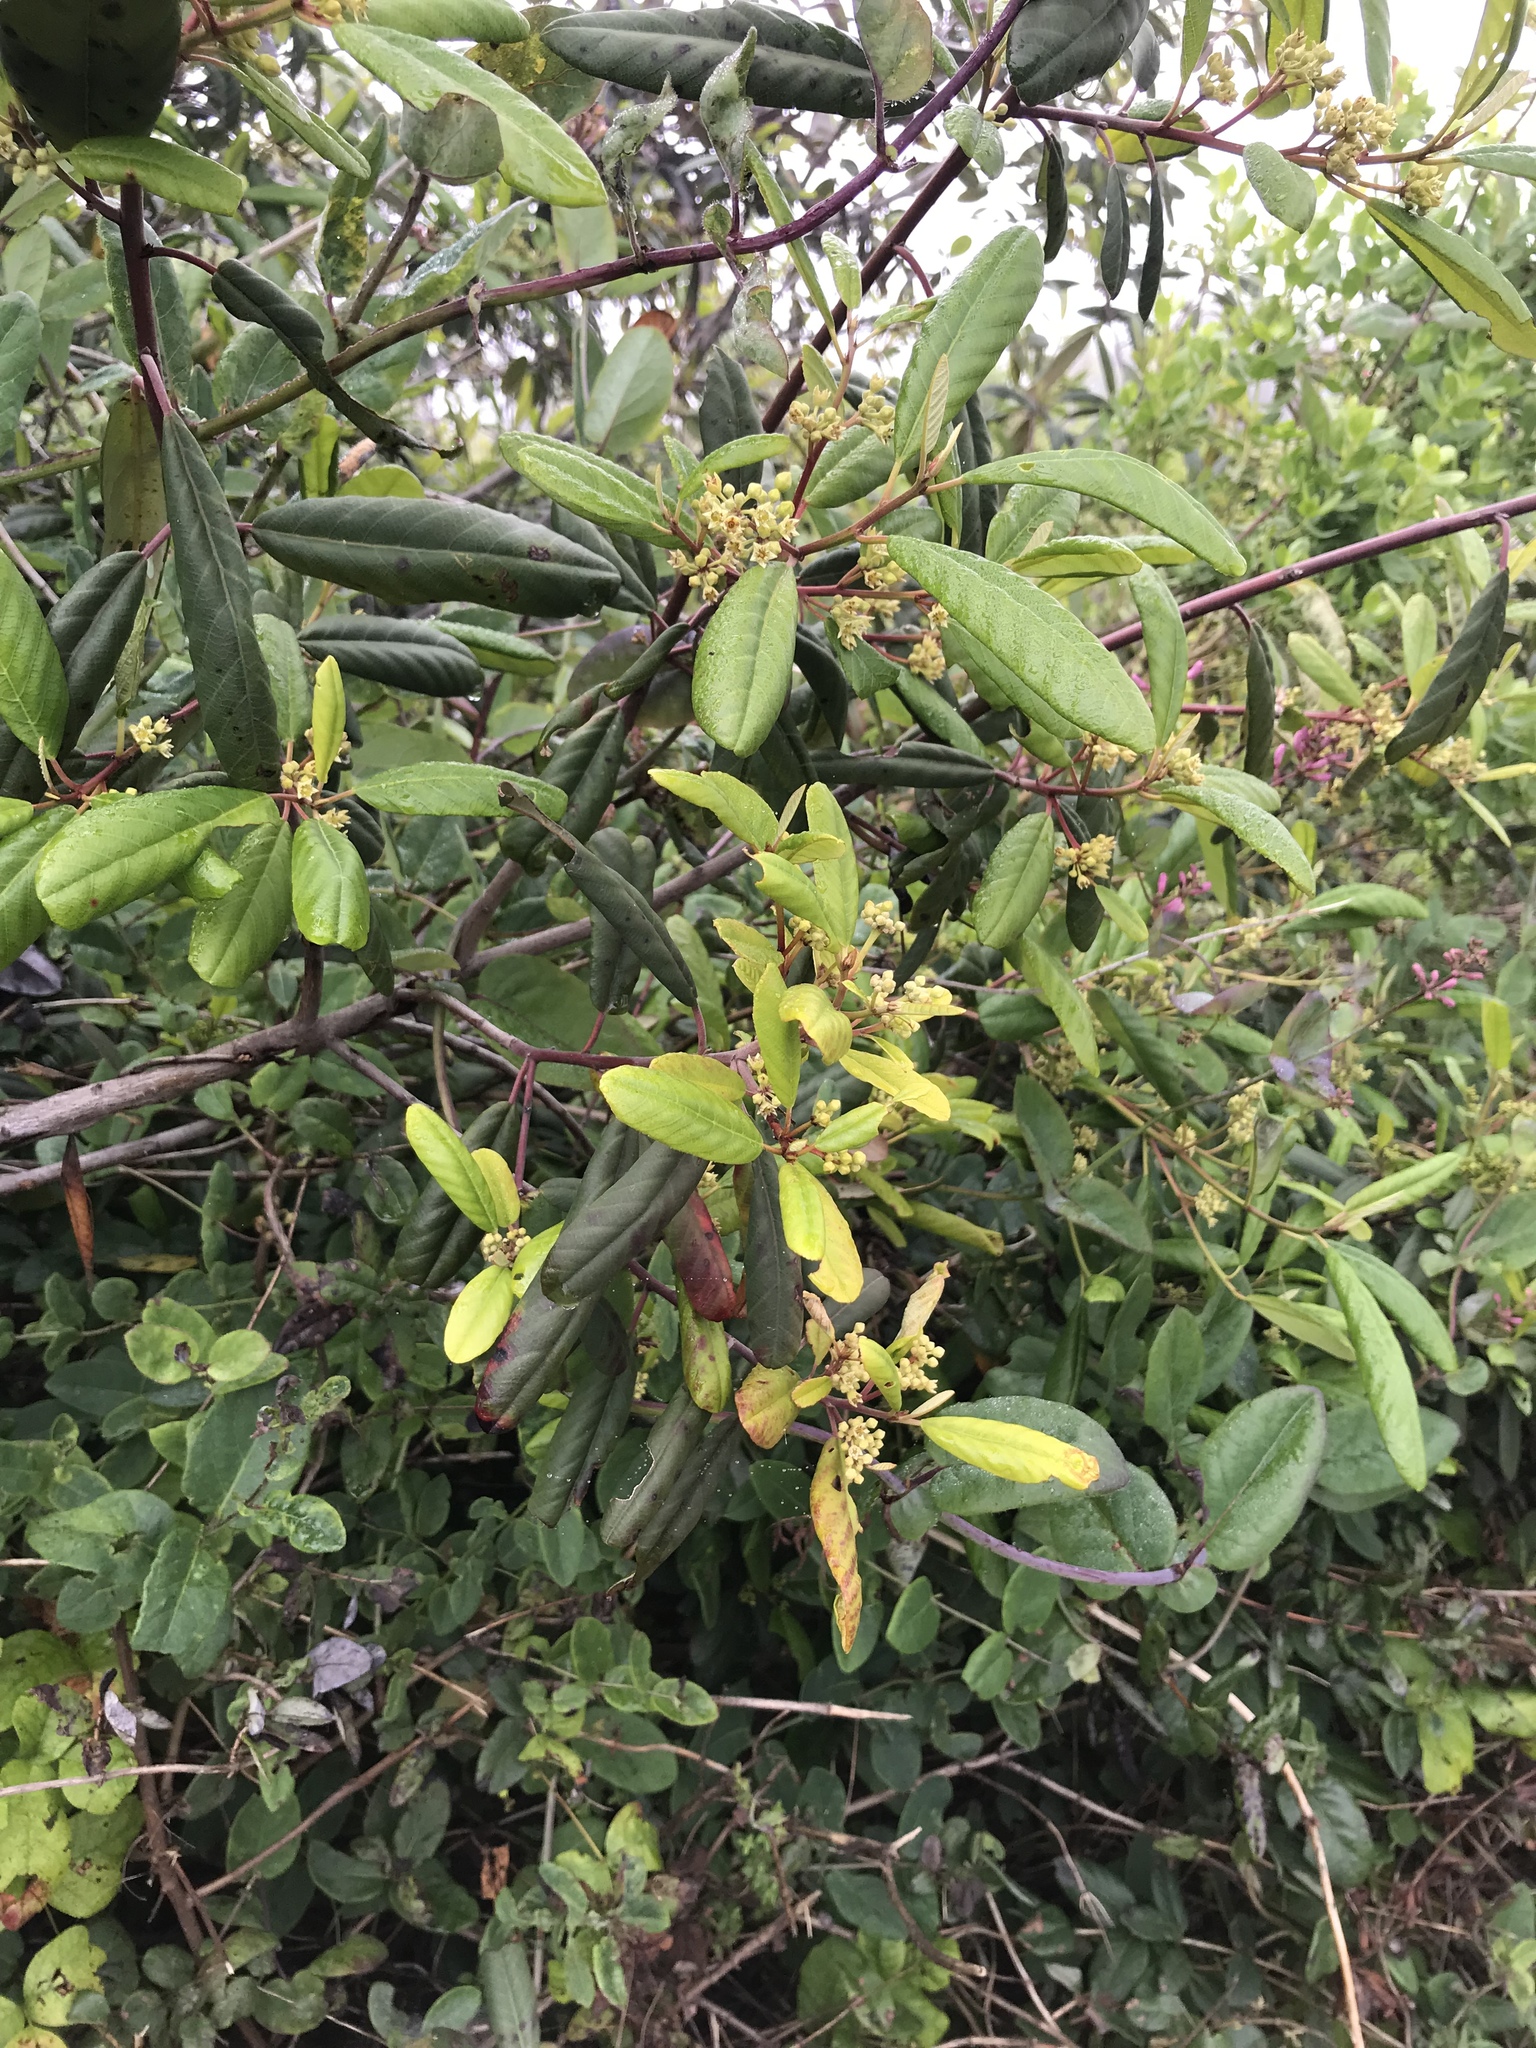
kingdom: Plantae
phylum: Tracheophyta
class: Magnoliopsida
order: Rosales
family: Rhamnaceae
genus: Frangula
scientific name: Frangula californica
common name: California buckthorn
